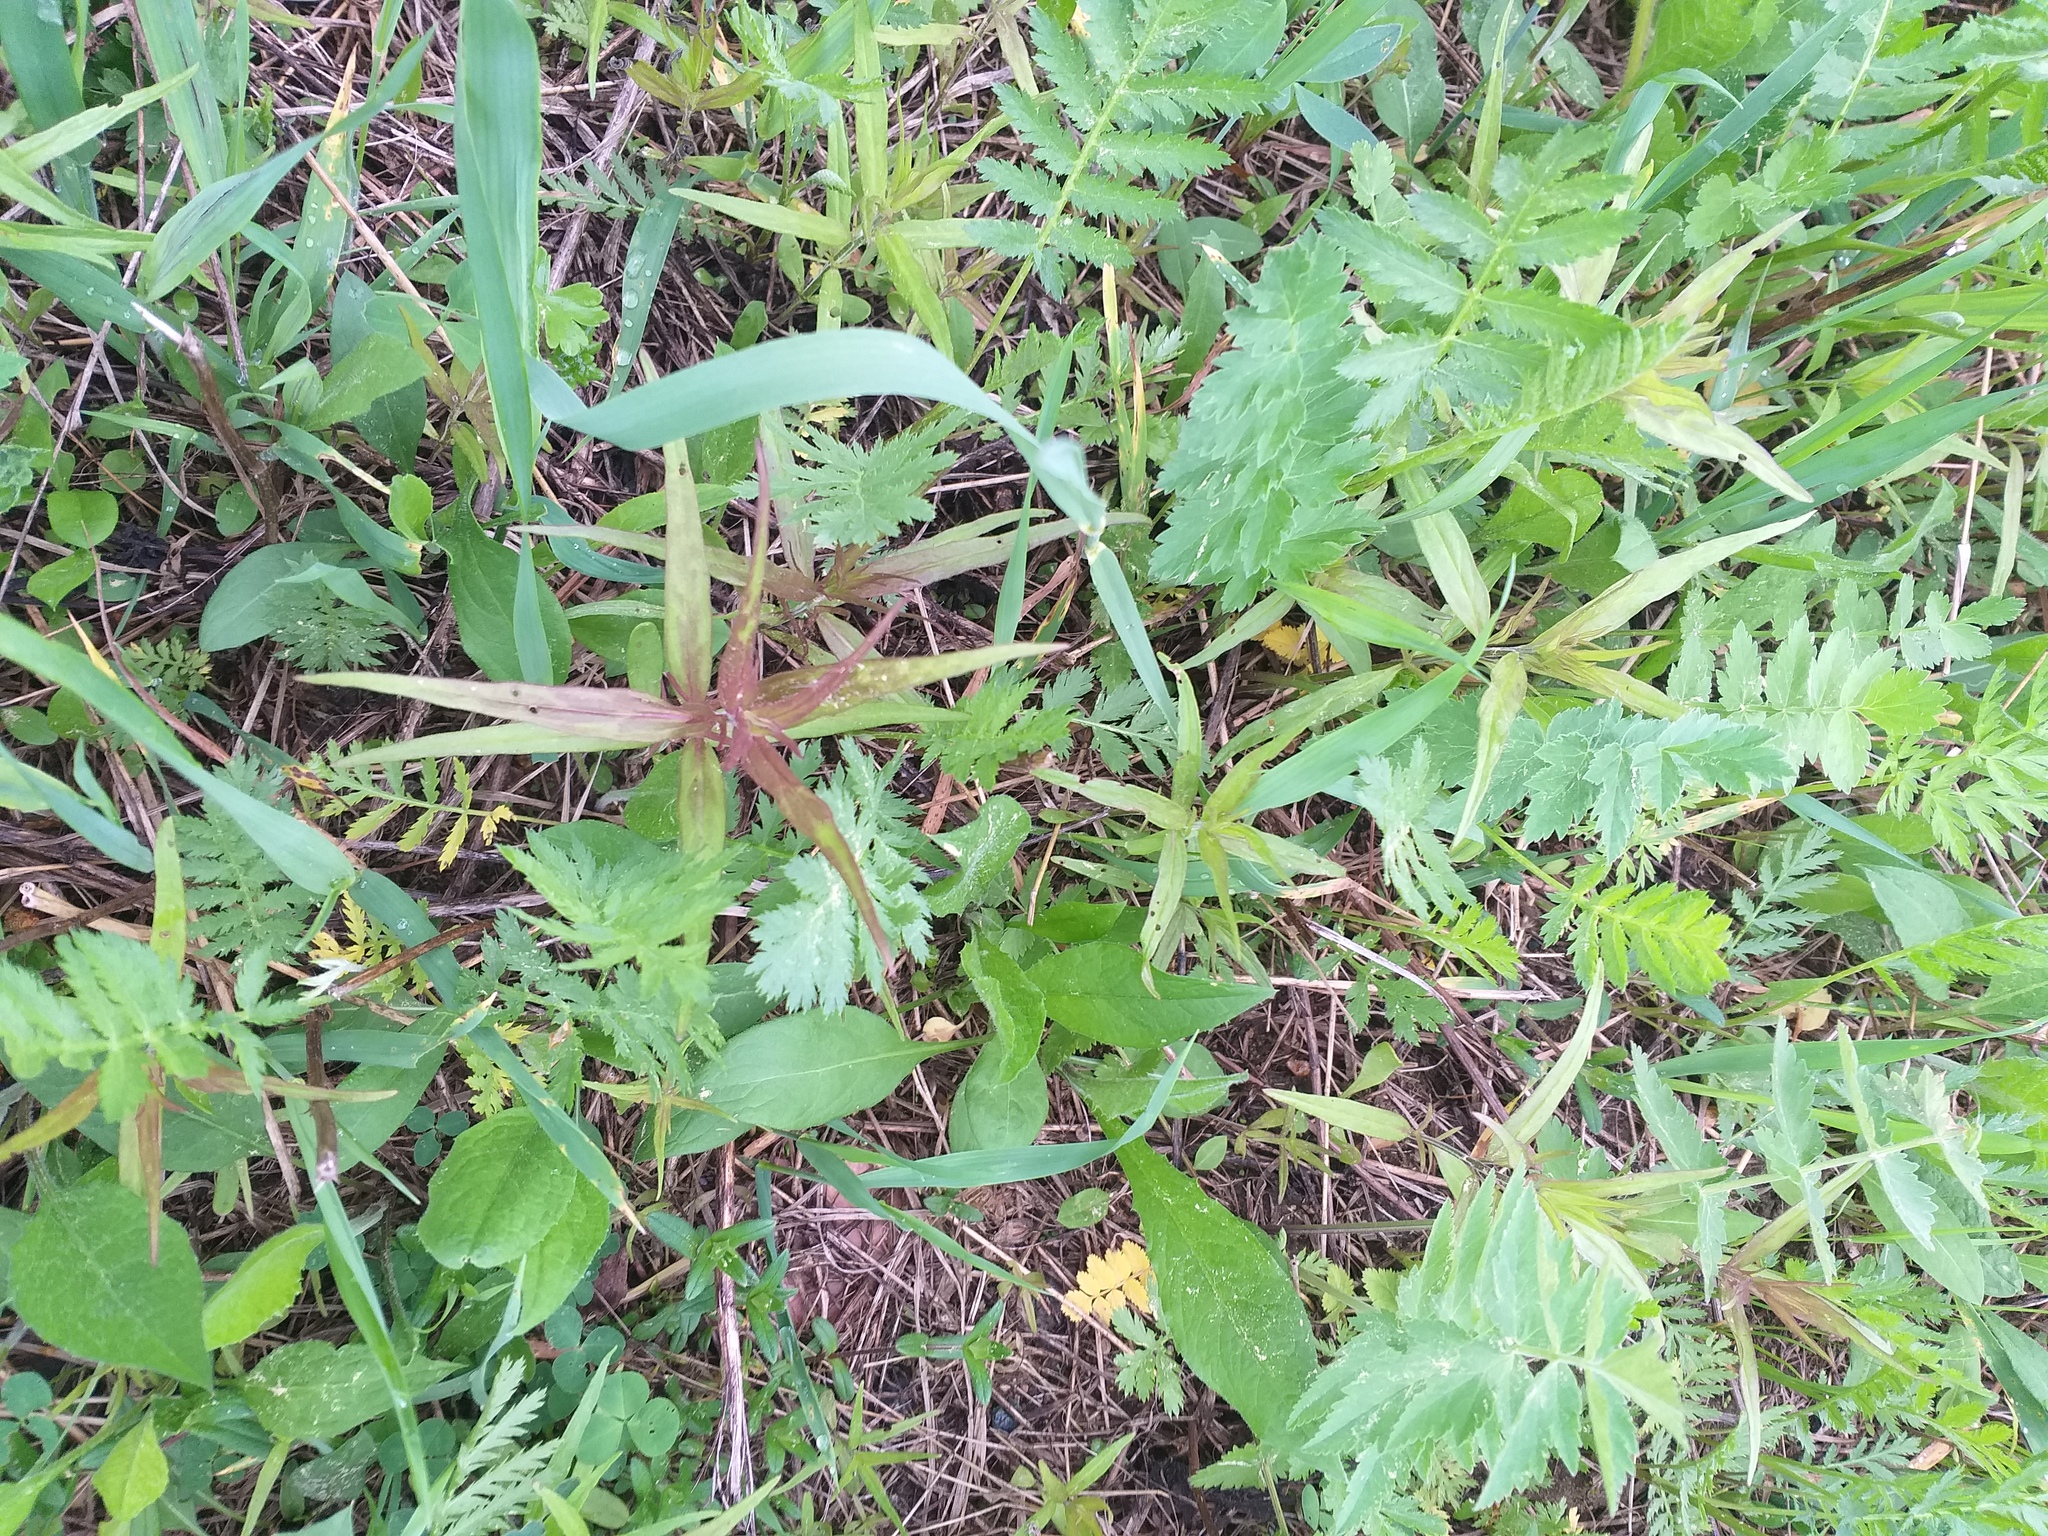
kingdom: Plantae
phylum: Tracheophyta
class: Magnoliopsida
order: Lamiales
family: Orobanchaceae
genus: Melampyrum
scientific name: Melampyrum nemorosum
